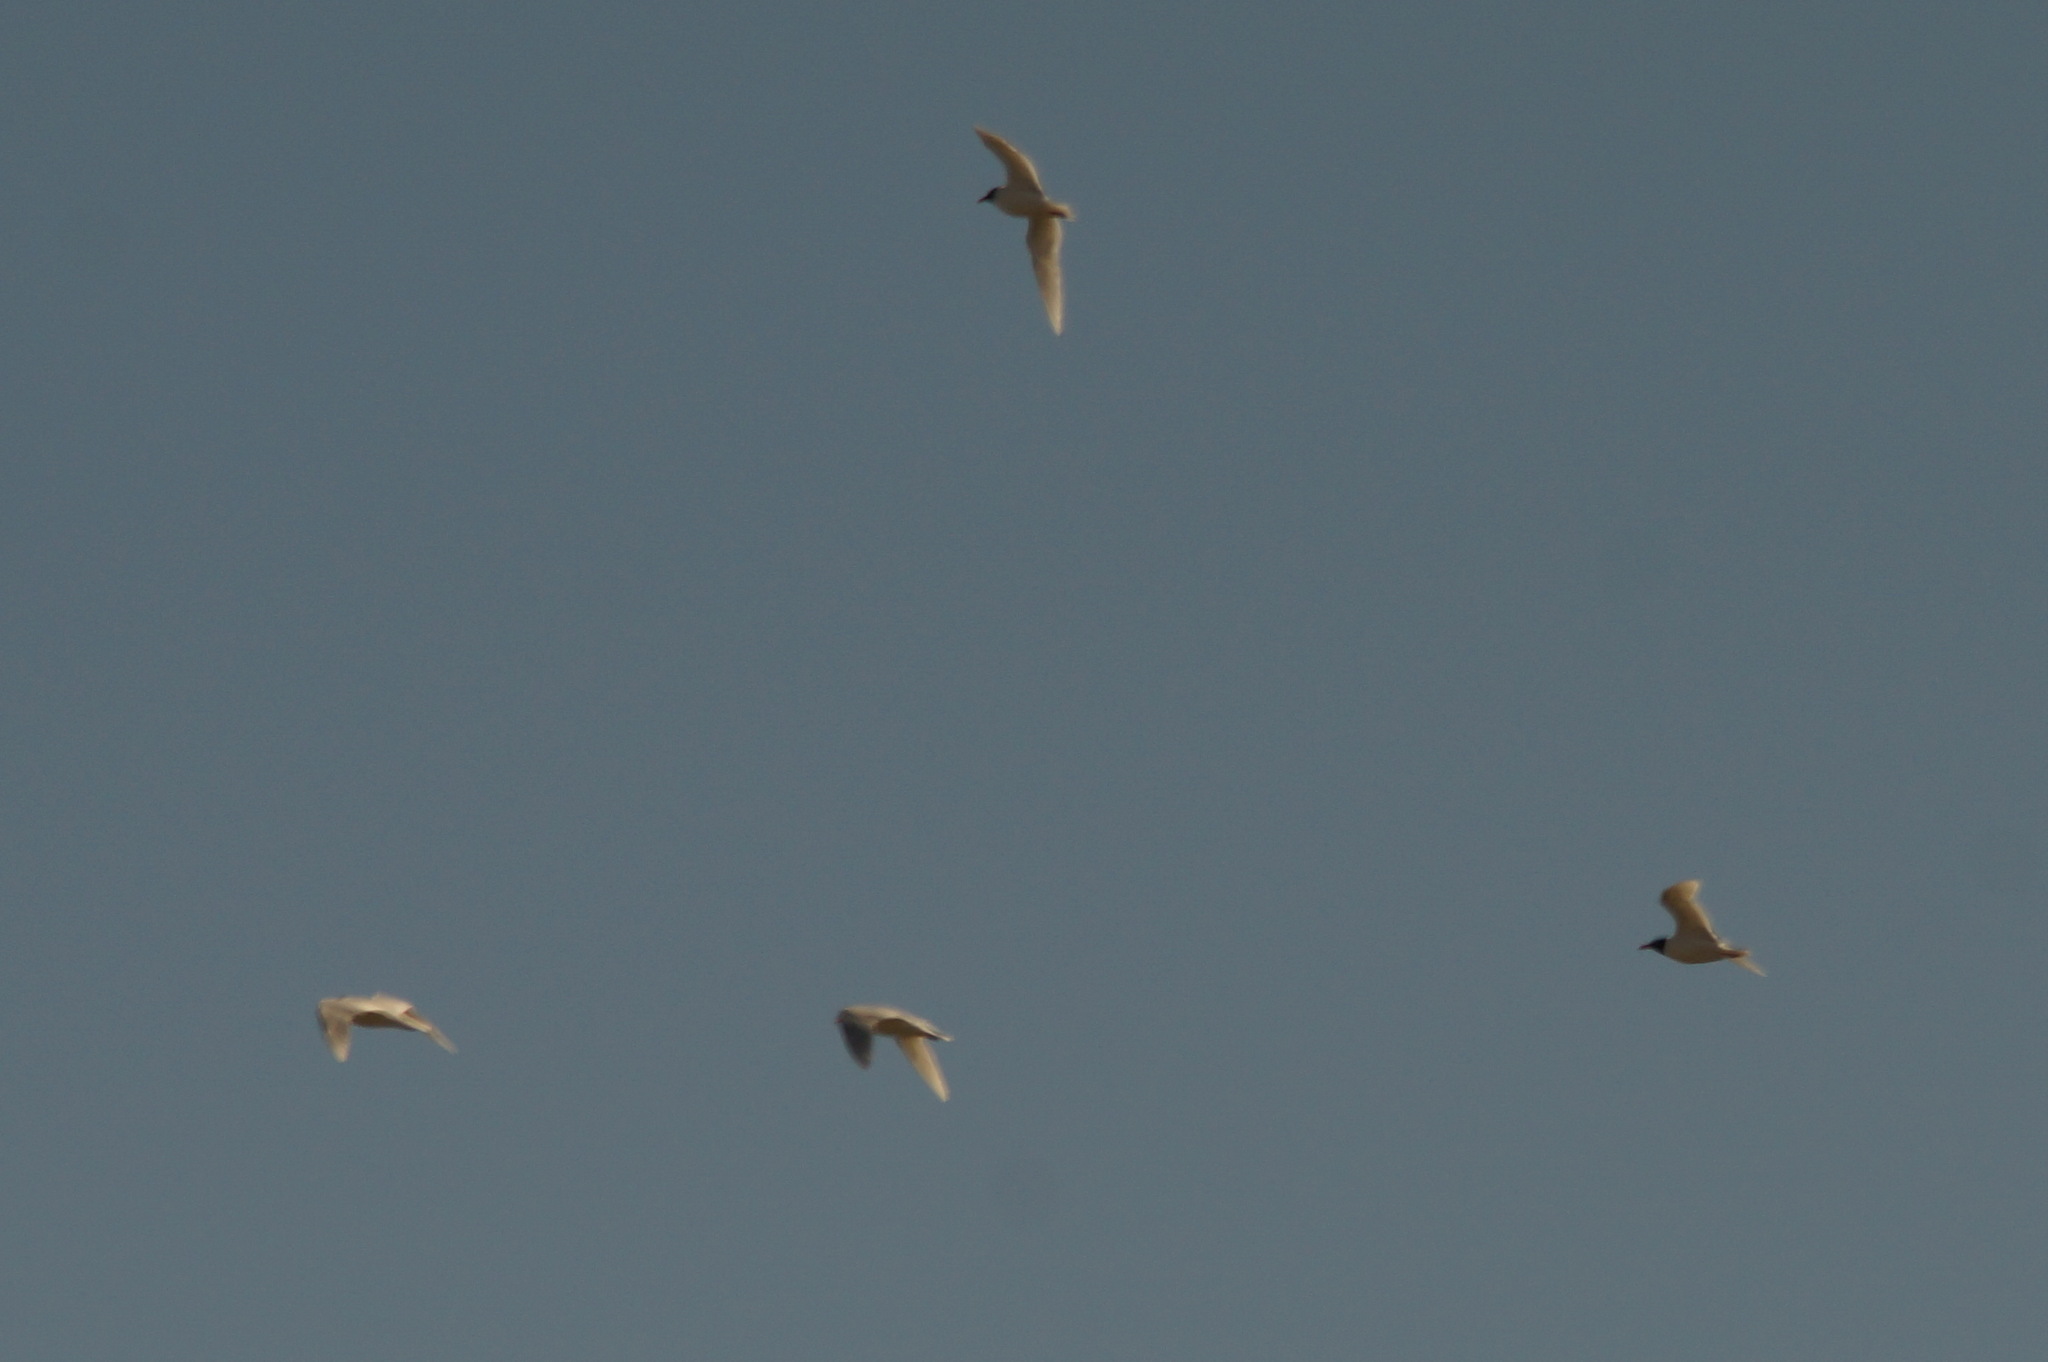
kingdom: Animalia
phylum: Chordata
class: Aves
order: Charadriiformes
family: Laridae
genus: Ichthyaetus
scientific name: Ichthyaetus melanocephalus
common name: Mediterranean gull
